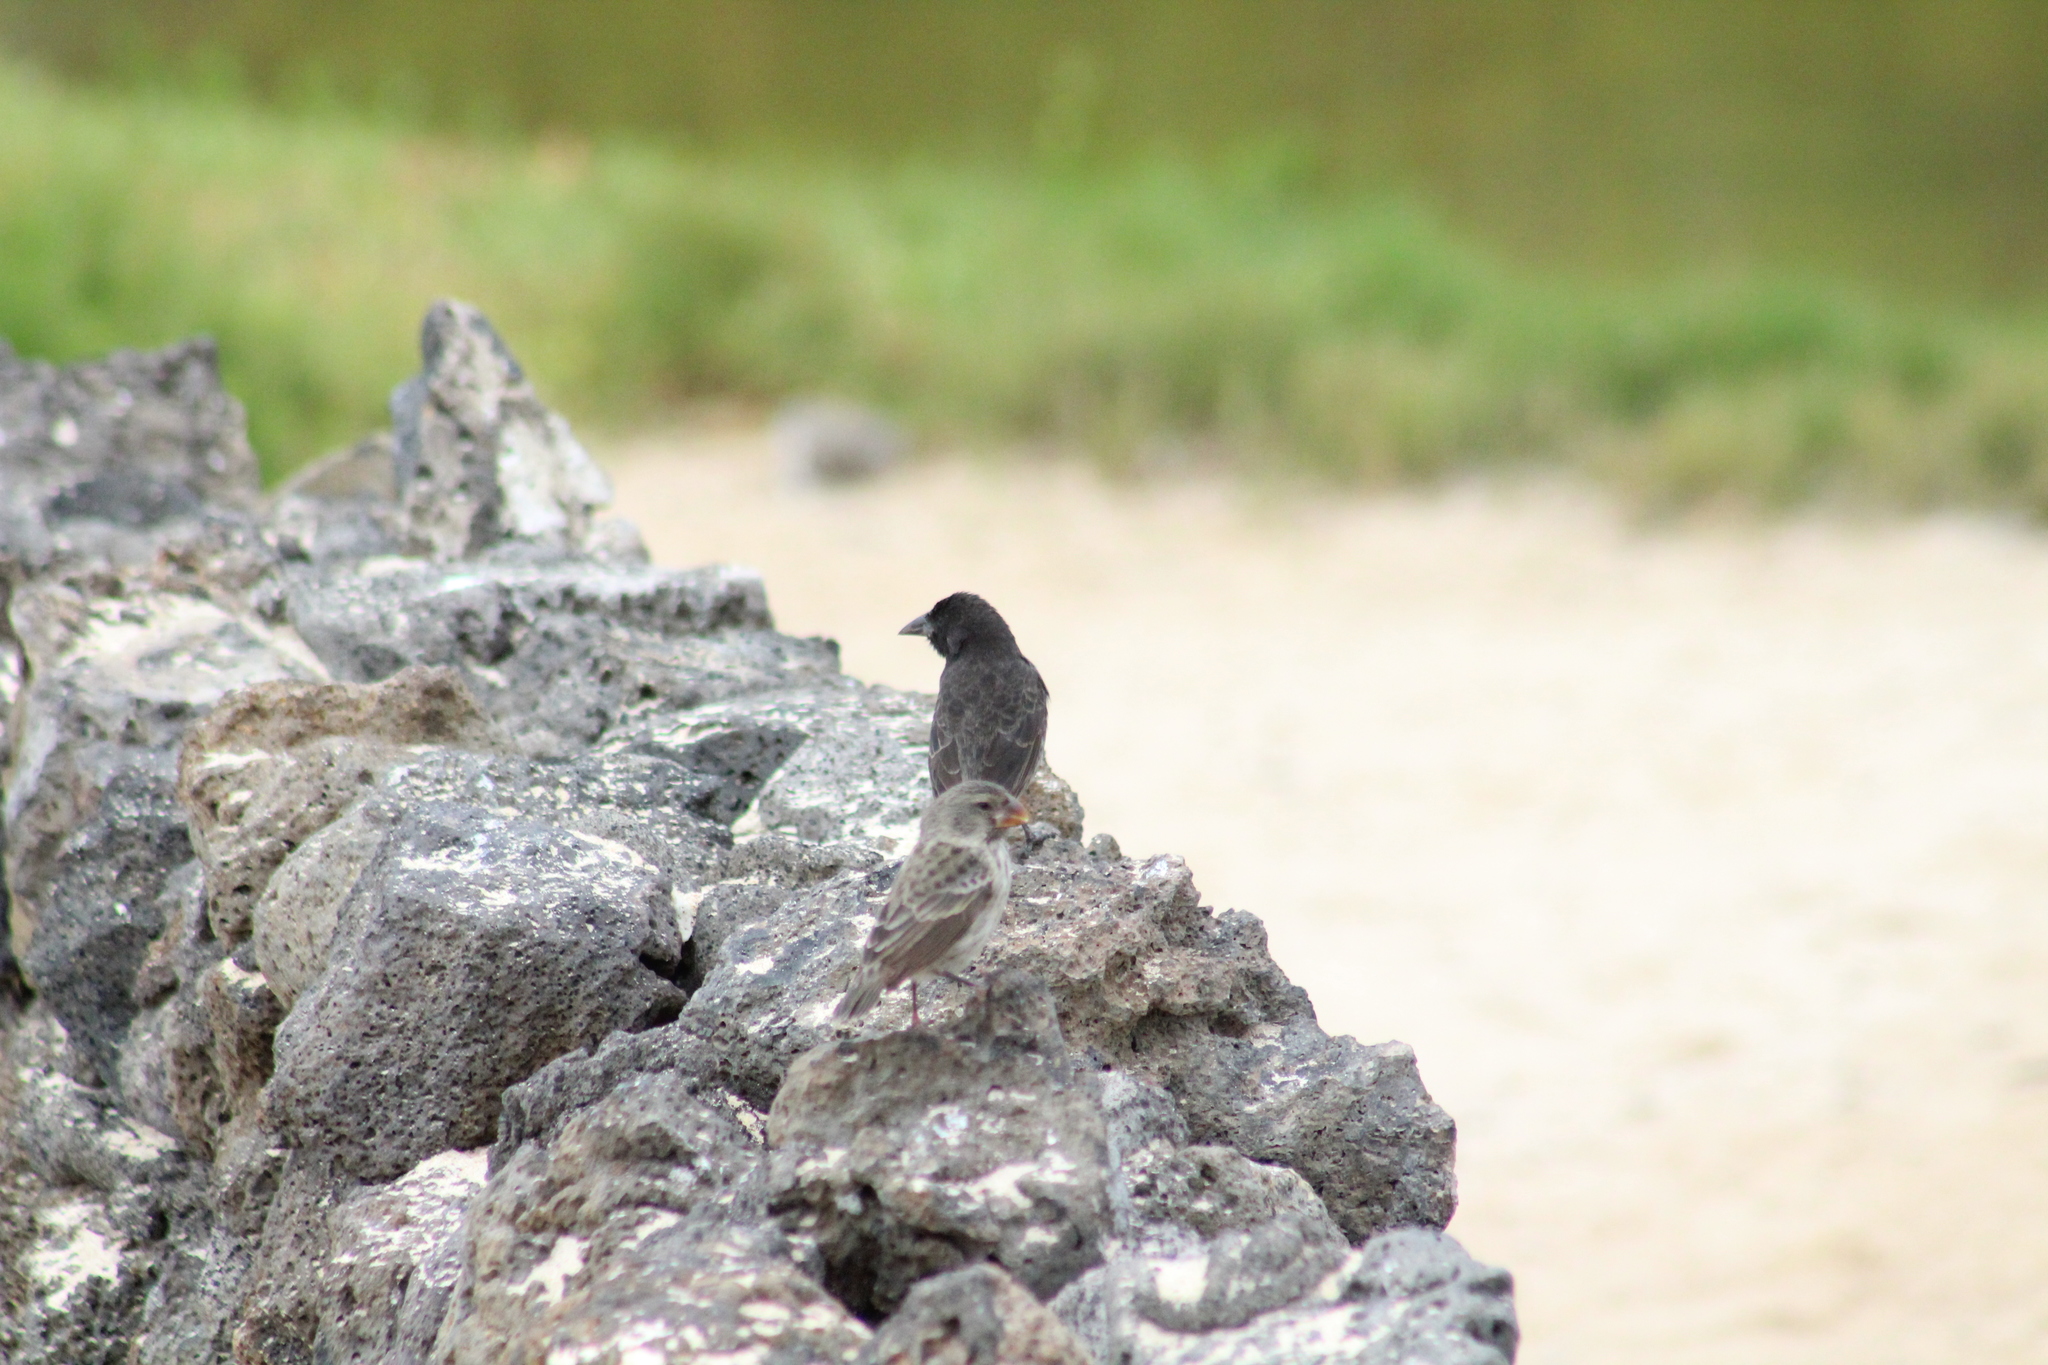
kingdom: Animalia
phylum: Chordata
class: Aves
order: Passeriformes
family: Thraupidae
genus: Geospiza
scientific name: Geospiza scandens
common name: Common cactus-finch
